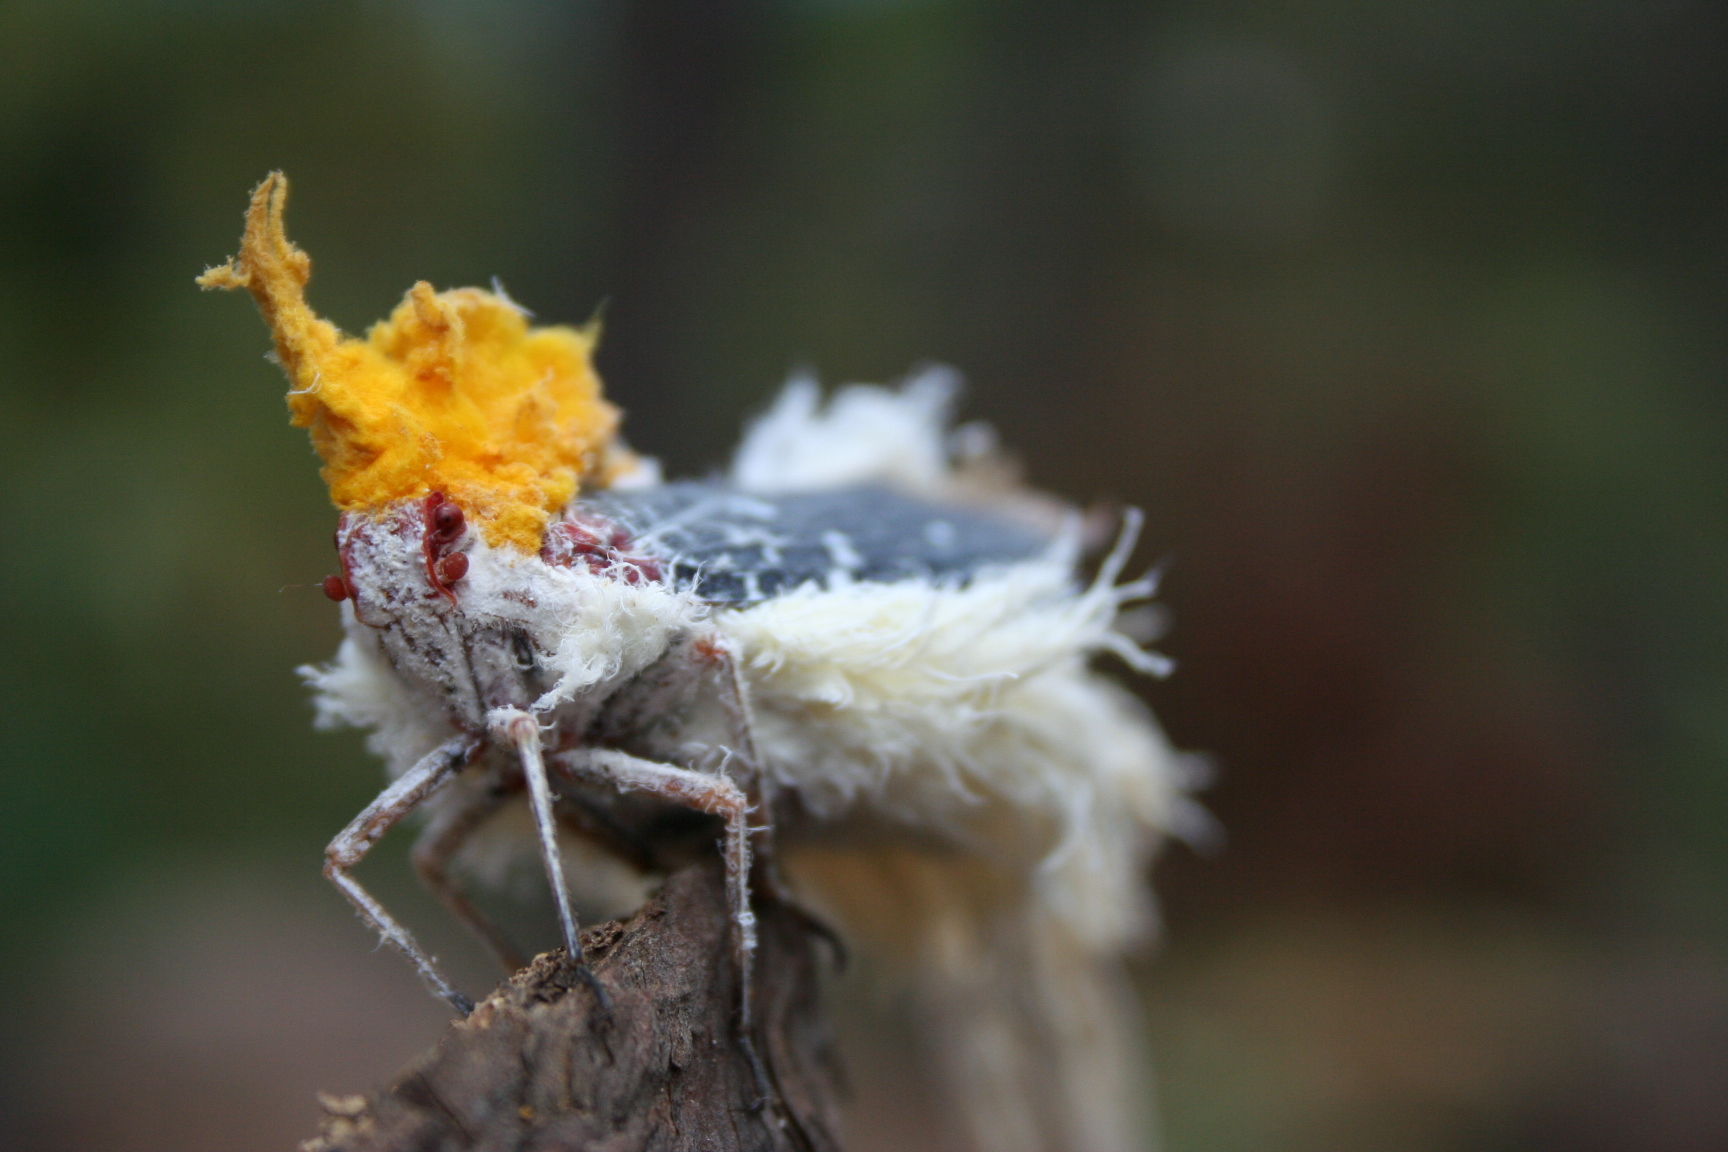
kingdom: Animalia
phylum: Arthropoda
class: Insecta
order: Hemiptera
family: Fulgoridae
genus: Cerogenes
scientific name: Cerogenes auricoma
